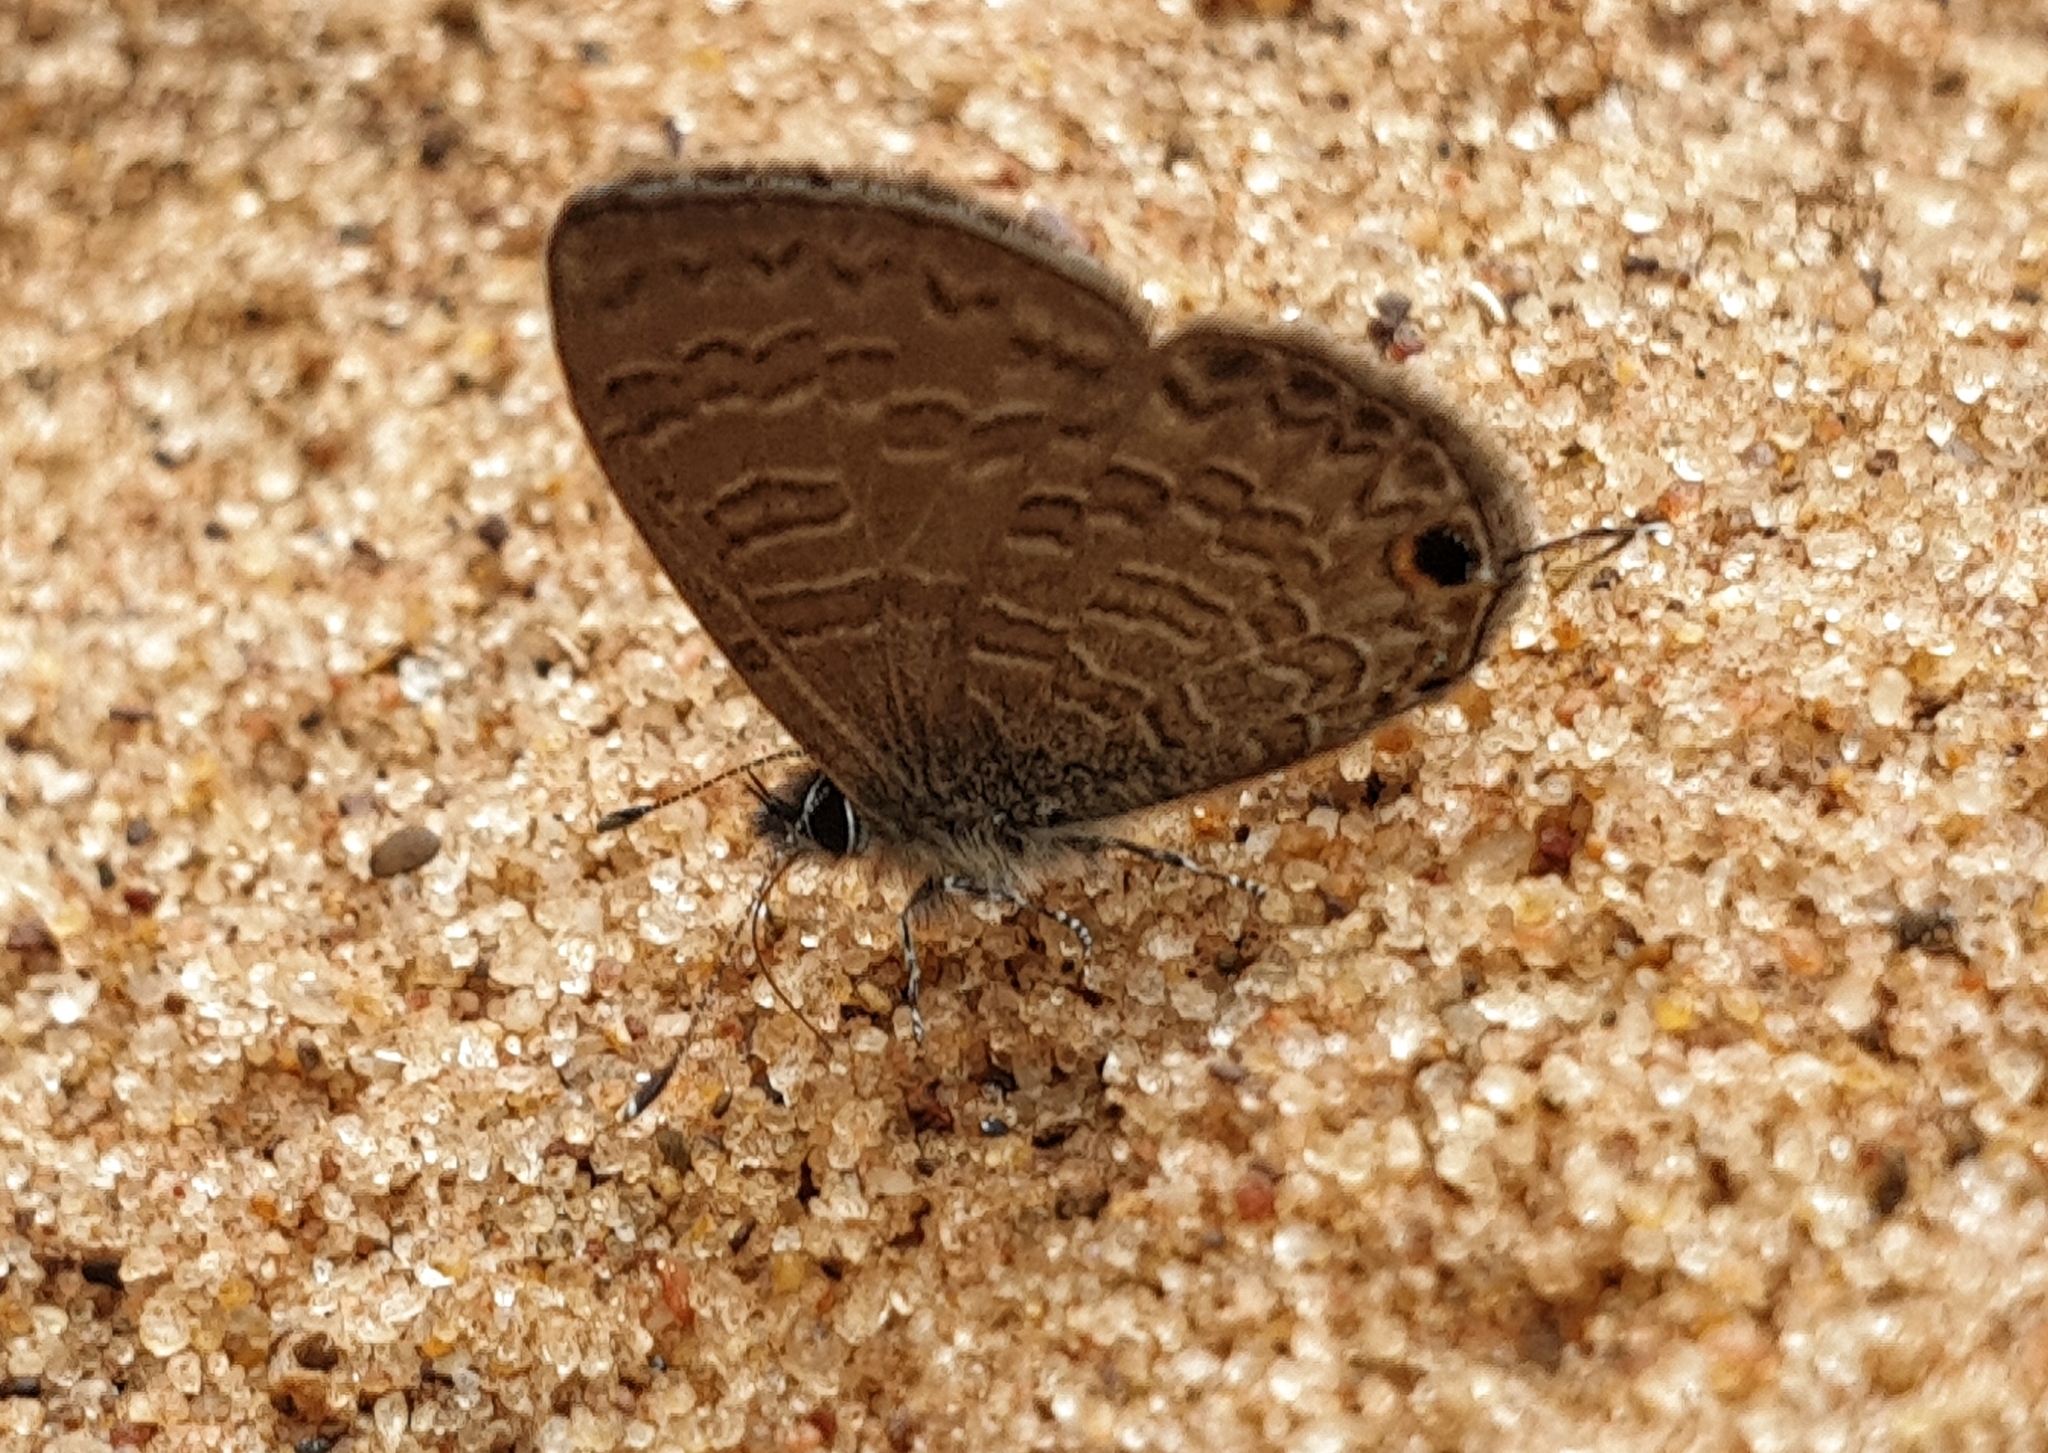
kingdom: Animalia
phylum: Arthropoda
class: Insecta
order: Lepidoptera
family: Lycaenidae
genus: Prosotas
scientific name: Prosotas nora
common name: Common line blue
